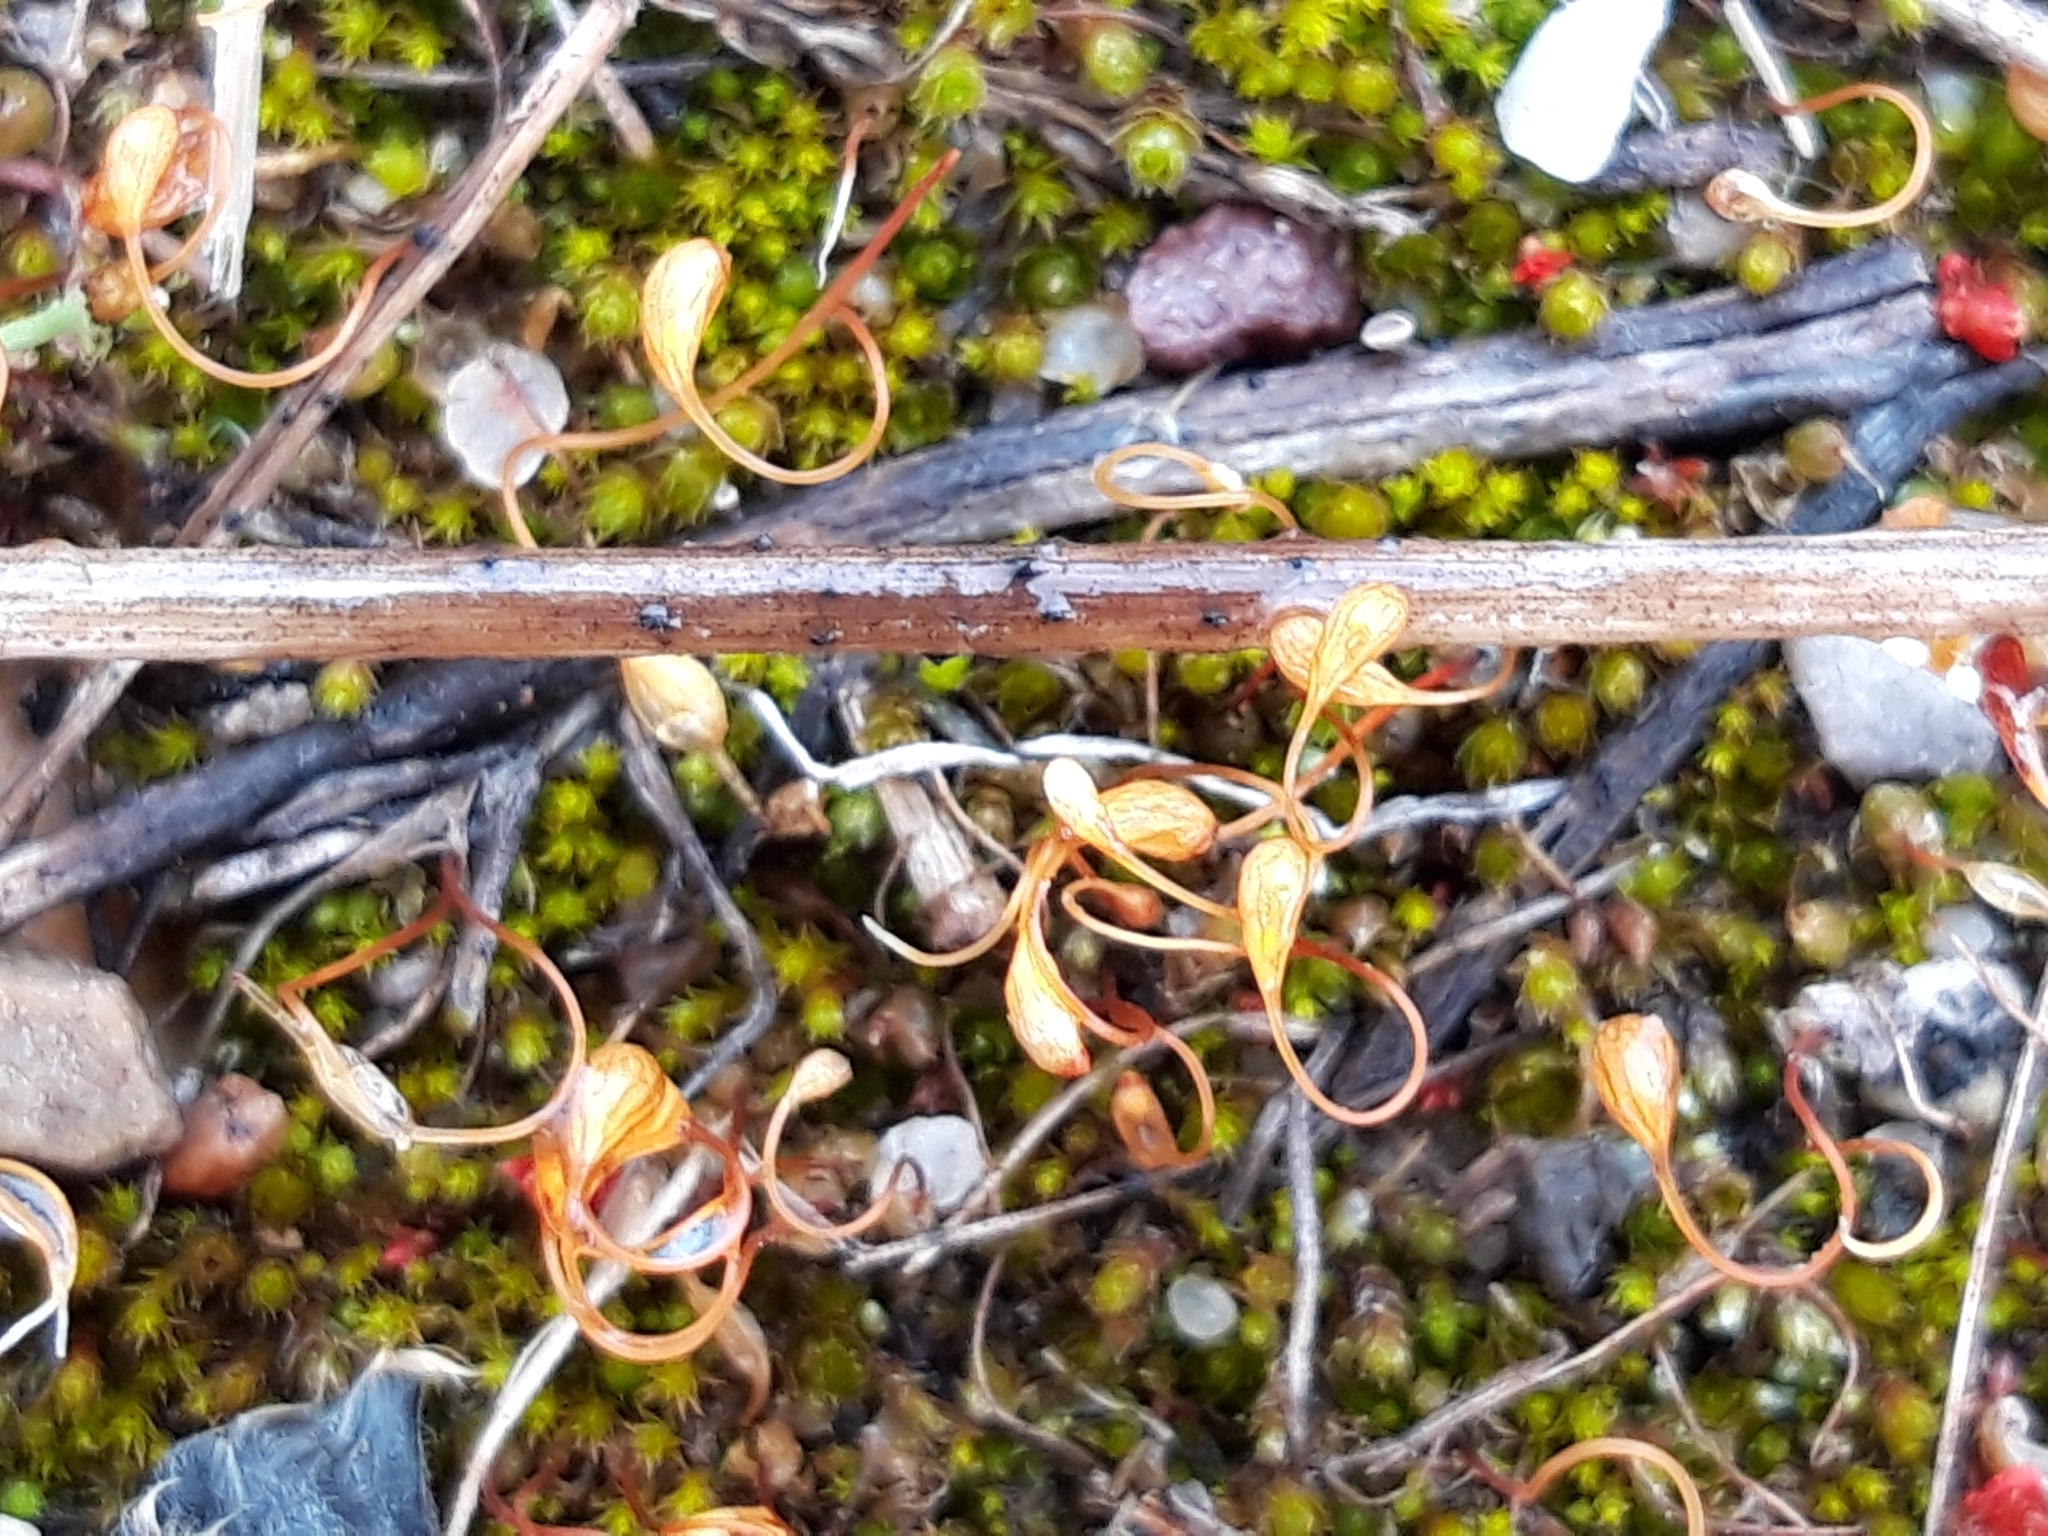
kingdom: Plantae
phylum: Bryophyta
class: Bryopsida
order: Funariales
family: Funariaceae
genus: Funaria
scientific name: Funaria hygrometrica
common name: Common cord moss
